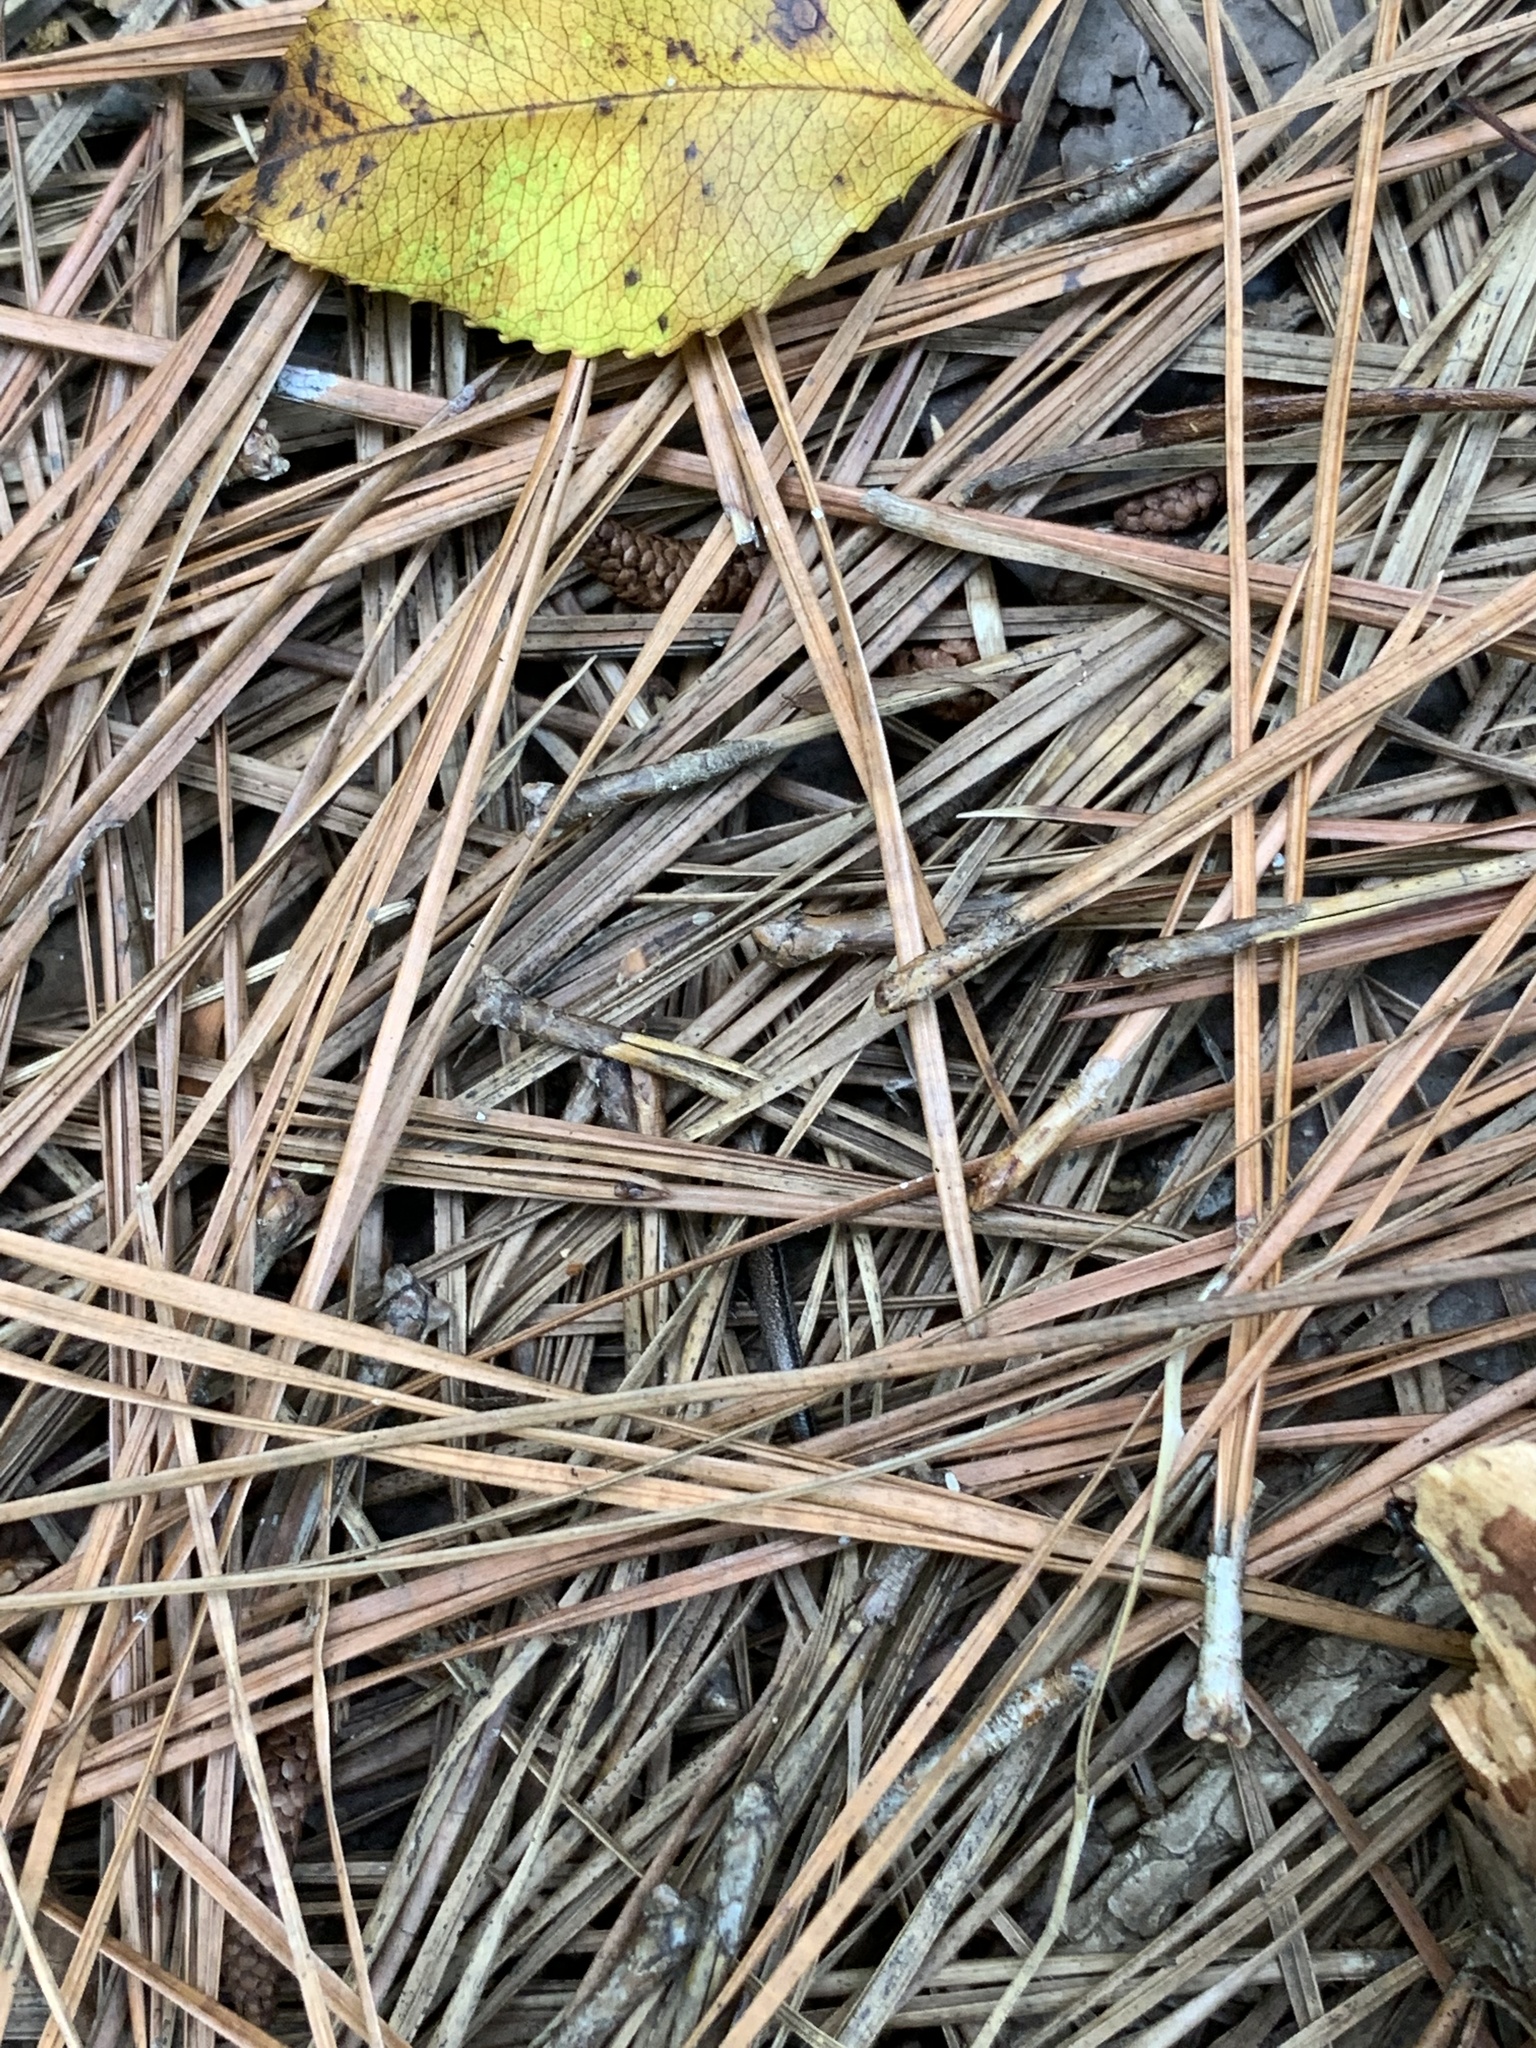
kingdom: Animalia
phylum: Chordata
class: Squamata
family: Scincidae
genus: Scincella
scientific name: Scincella lateralis
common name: Ground skink
